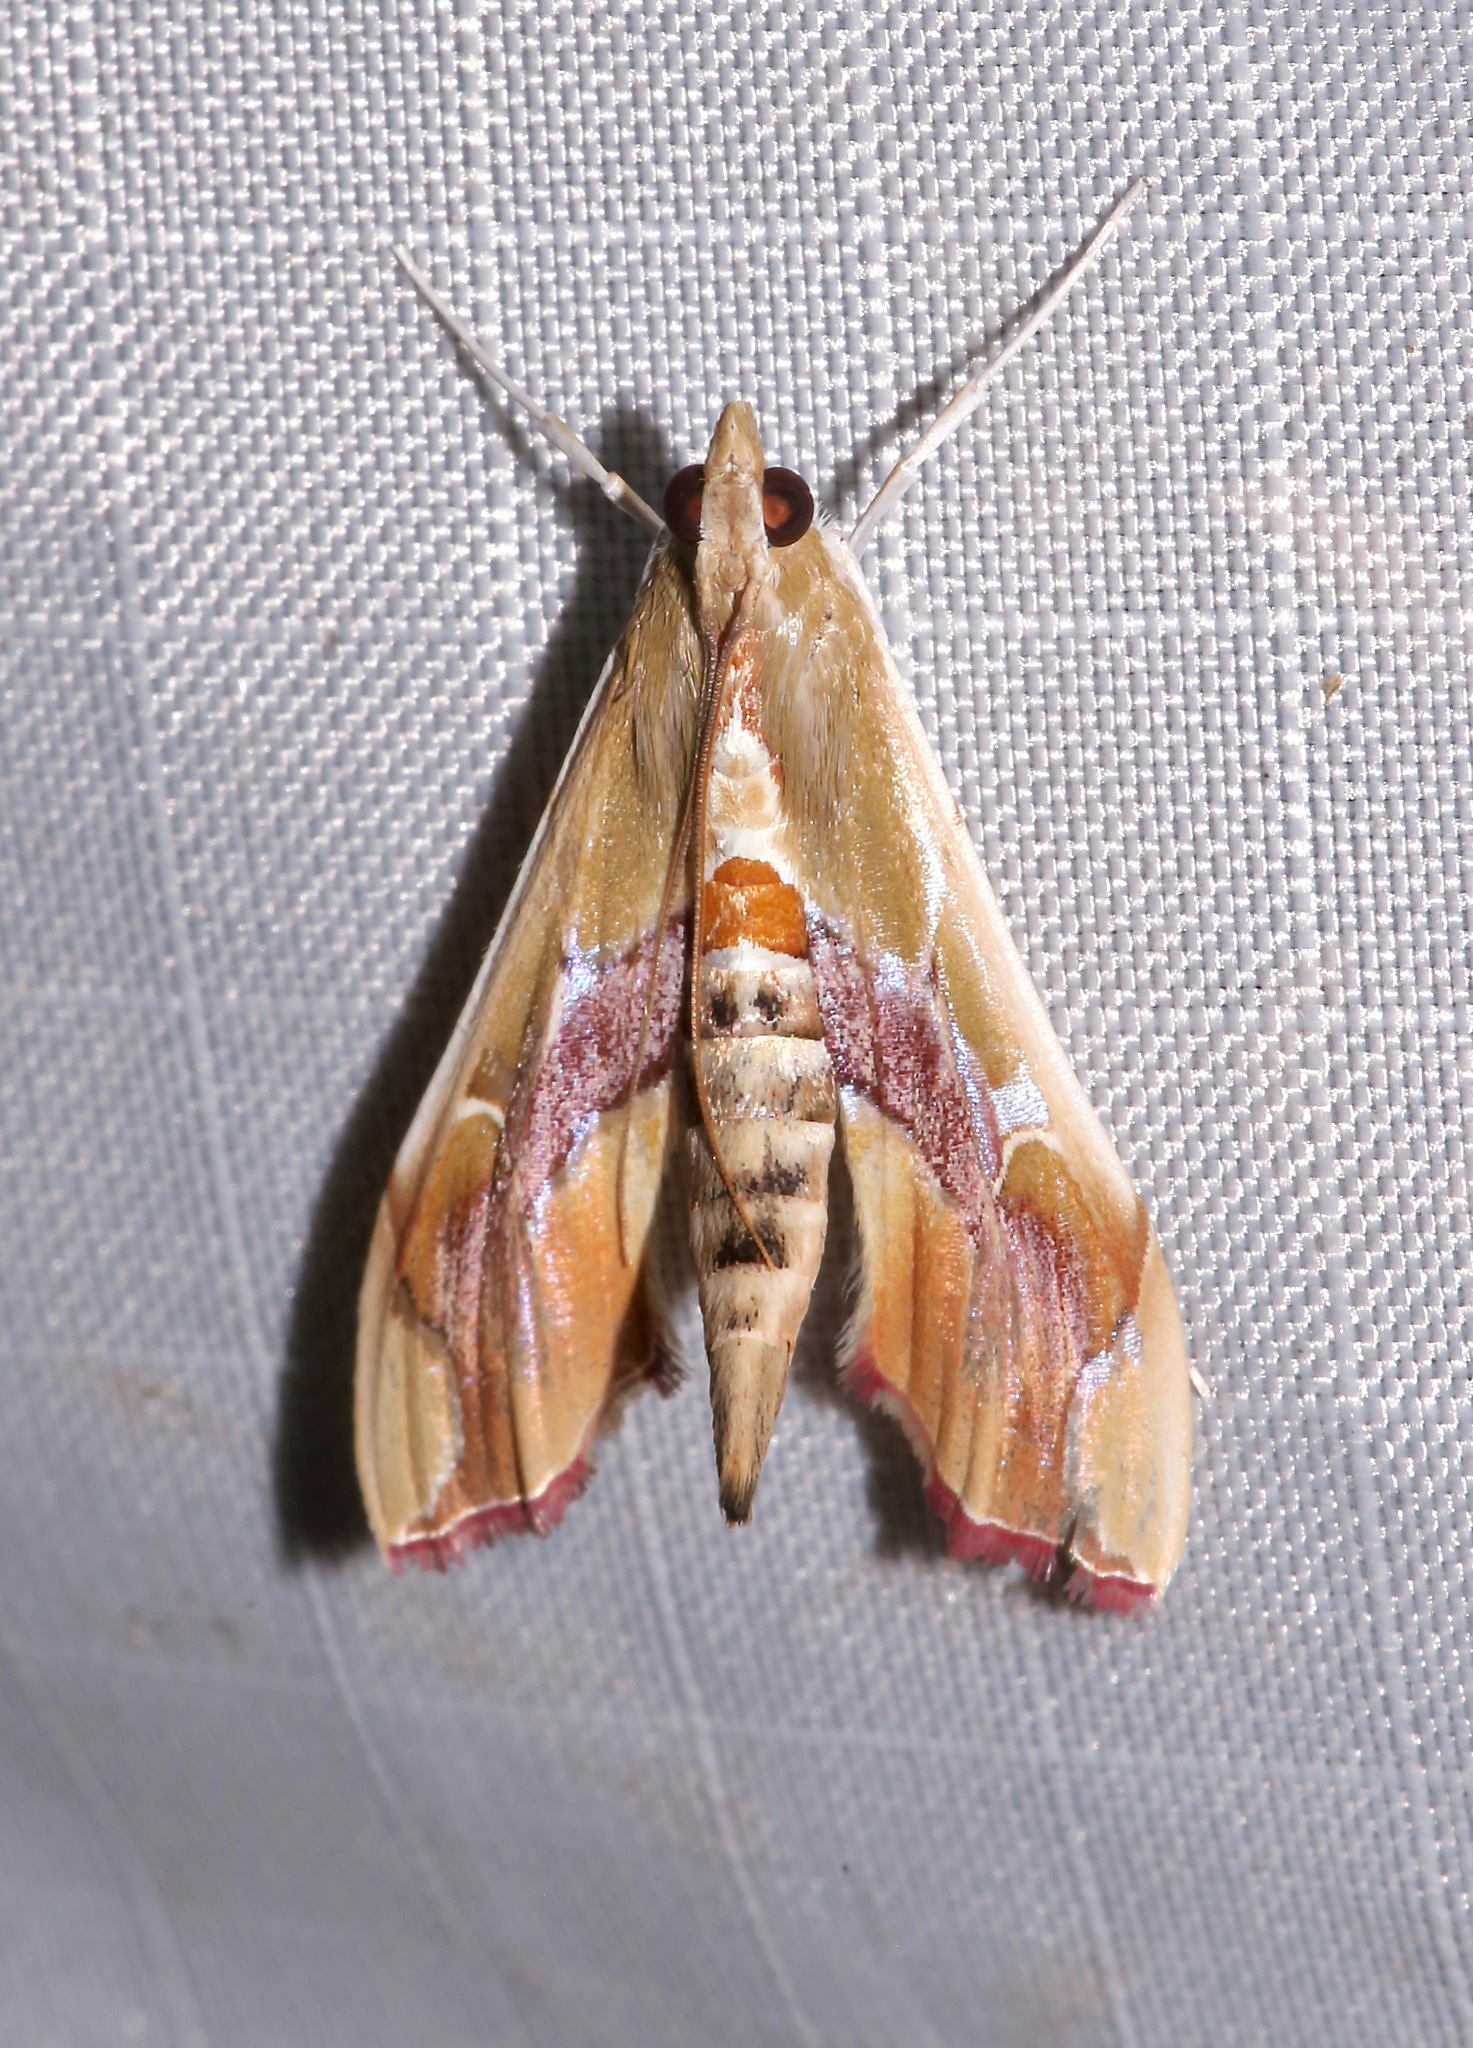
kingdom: Animalia
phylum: Arthropoda
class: Insecta
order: Lepidoptera
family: Crambidae
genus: Agathodes
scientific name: Agathodes monstralis
